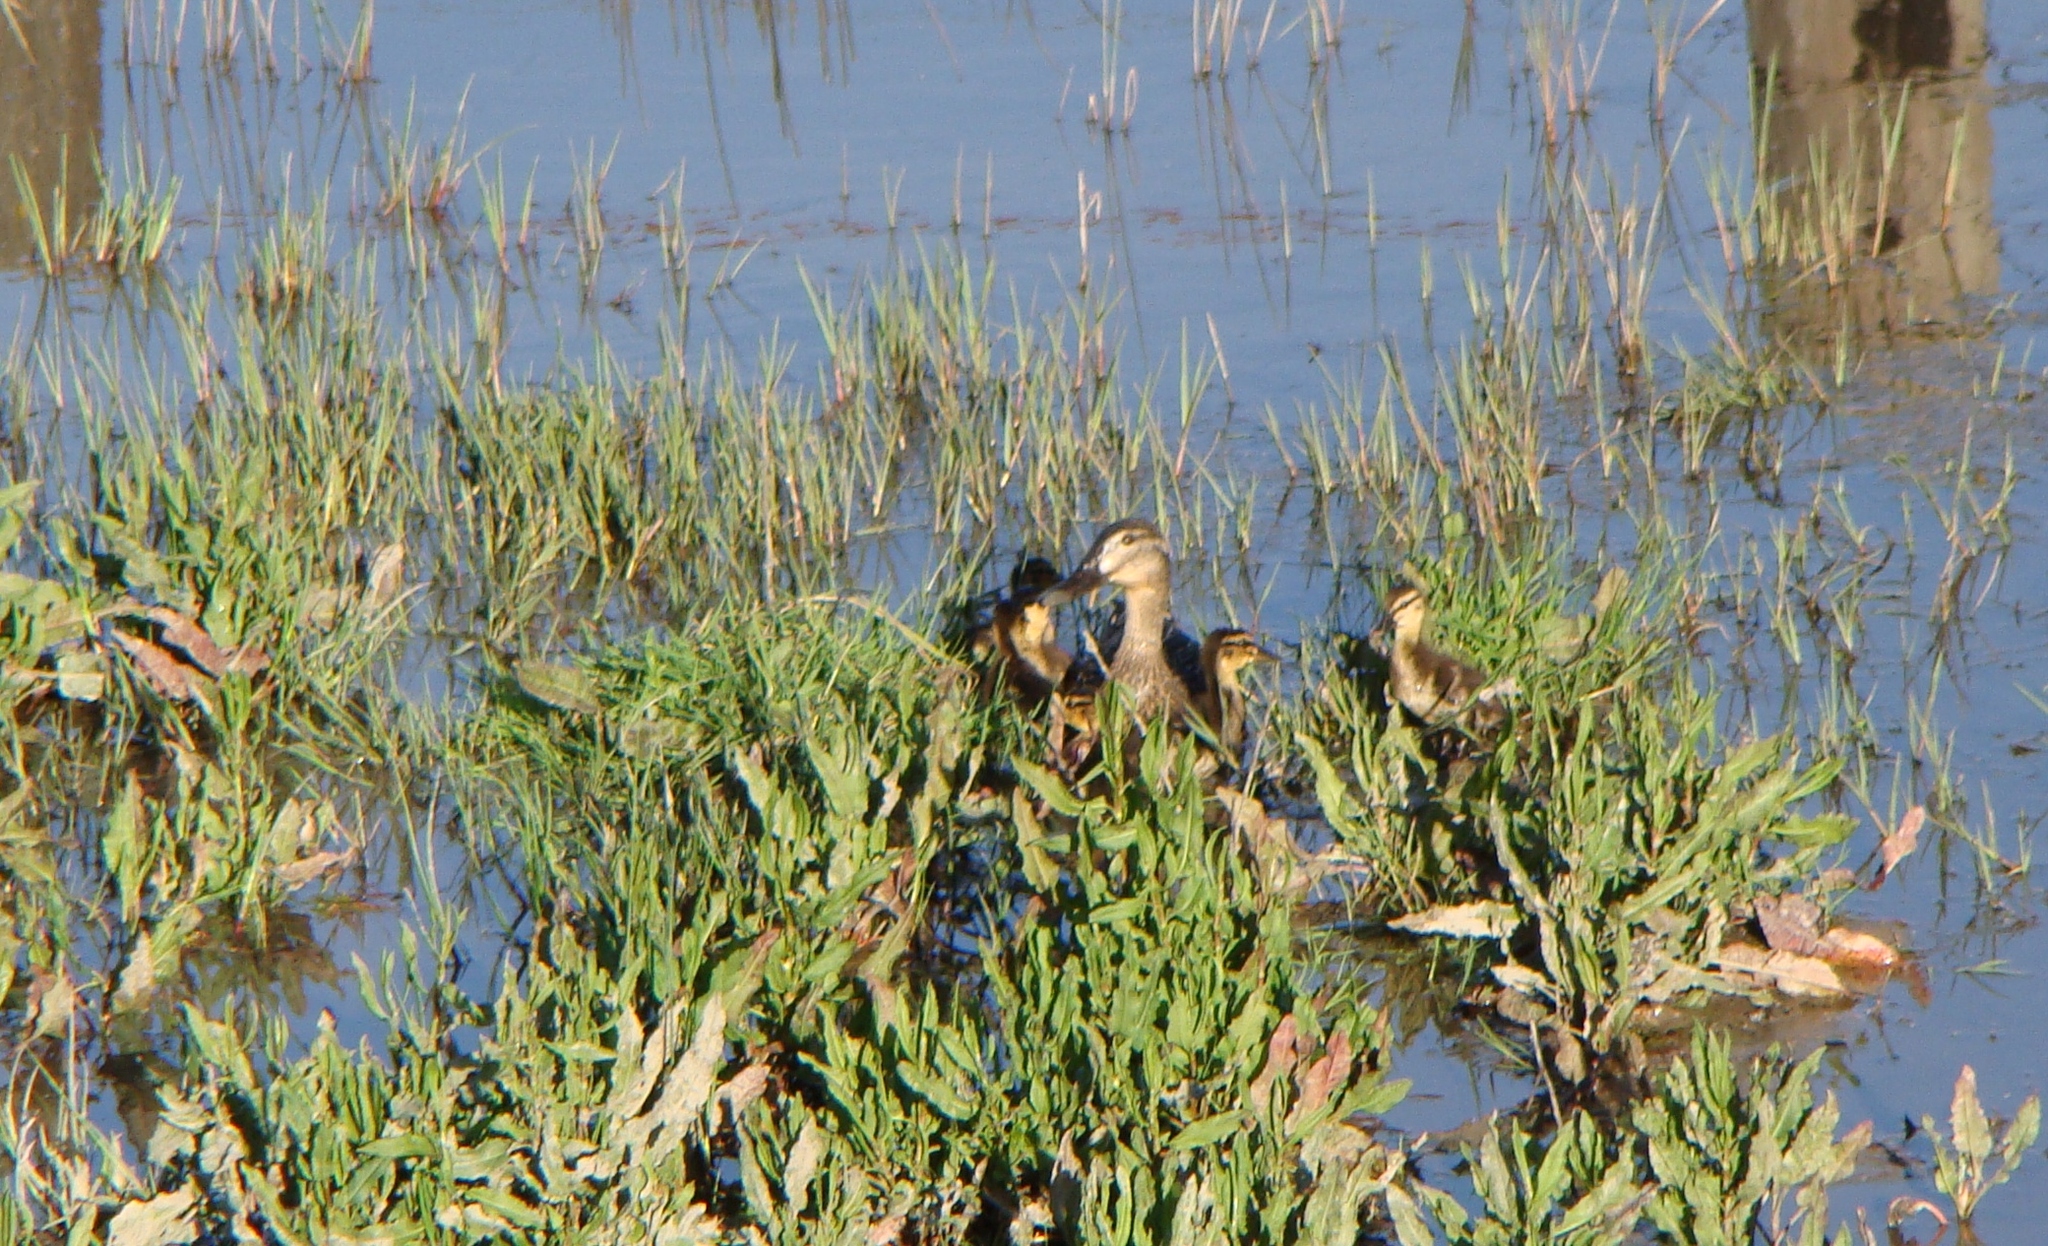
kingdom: Animalia
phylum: Chordata
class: Aves
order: Anseriformes
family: Anatidae
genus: Anas
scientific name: Anas
